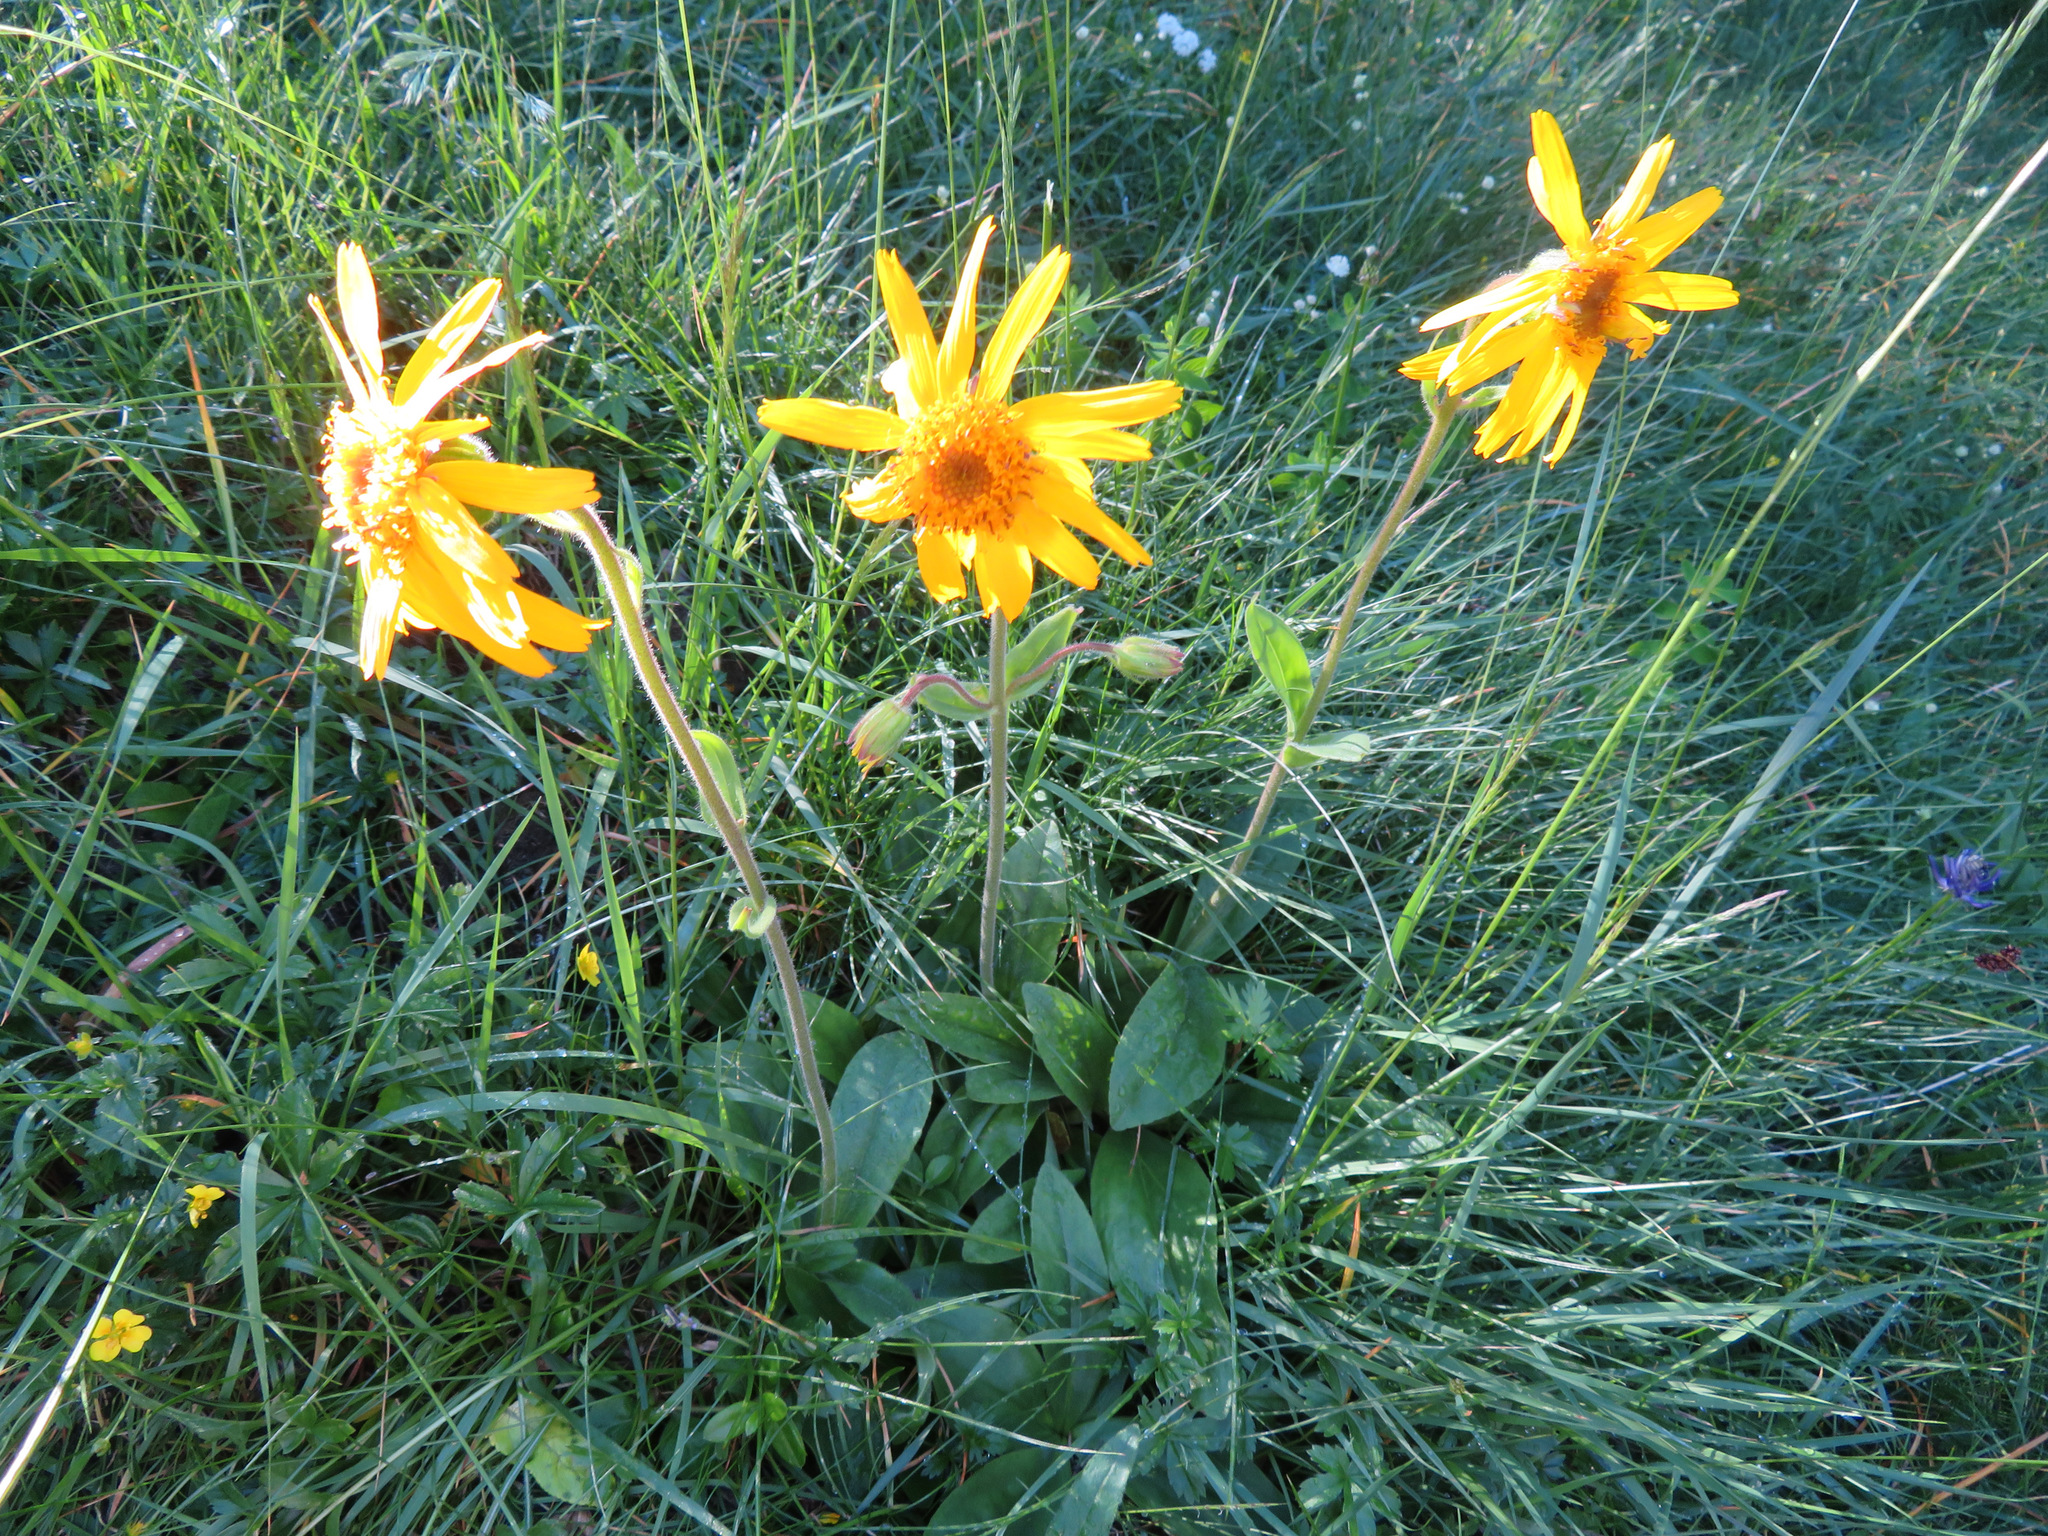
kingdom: Plantae
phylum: Tracheophyta
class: Magnoliopsida
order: Asterales
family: Asteraceae
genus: Arnica
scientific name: Arnica montana
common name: Leopard's bane
